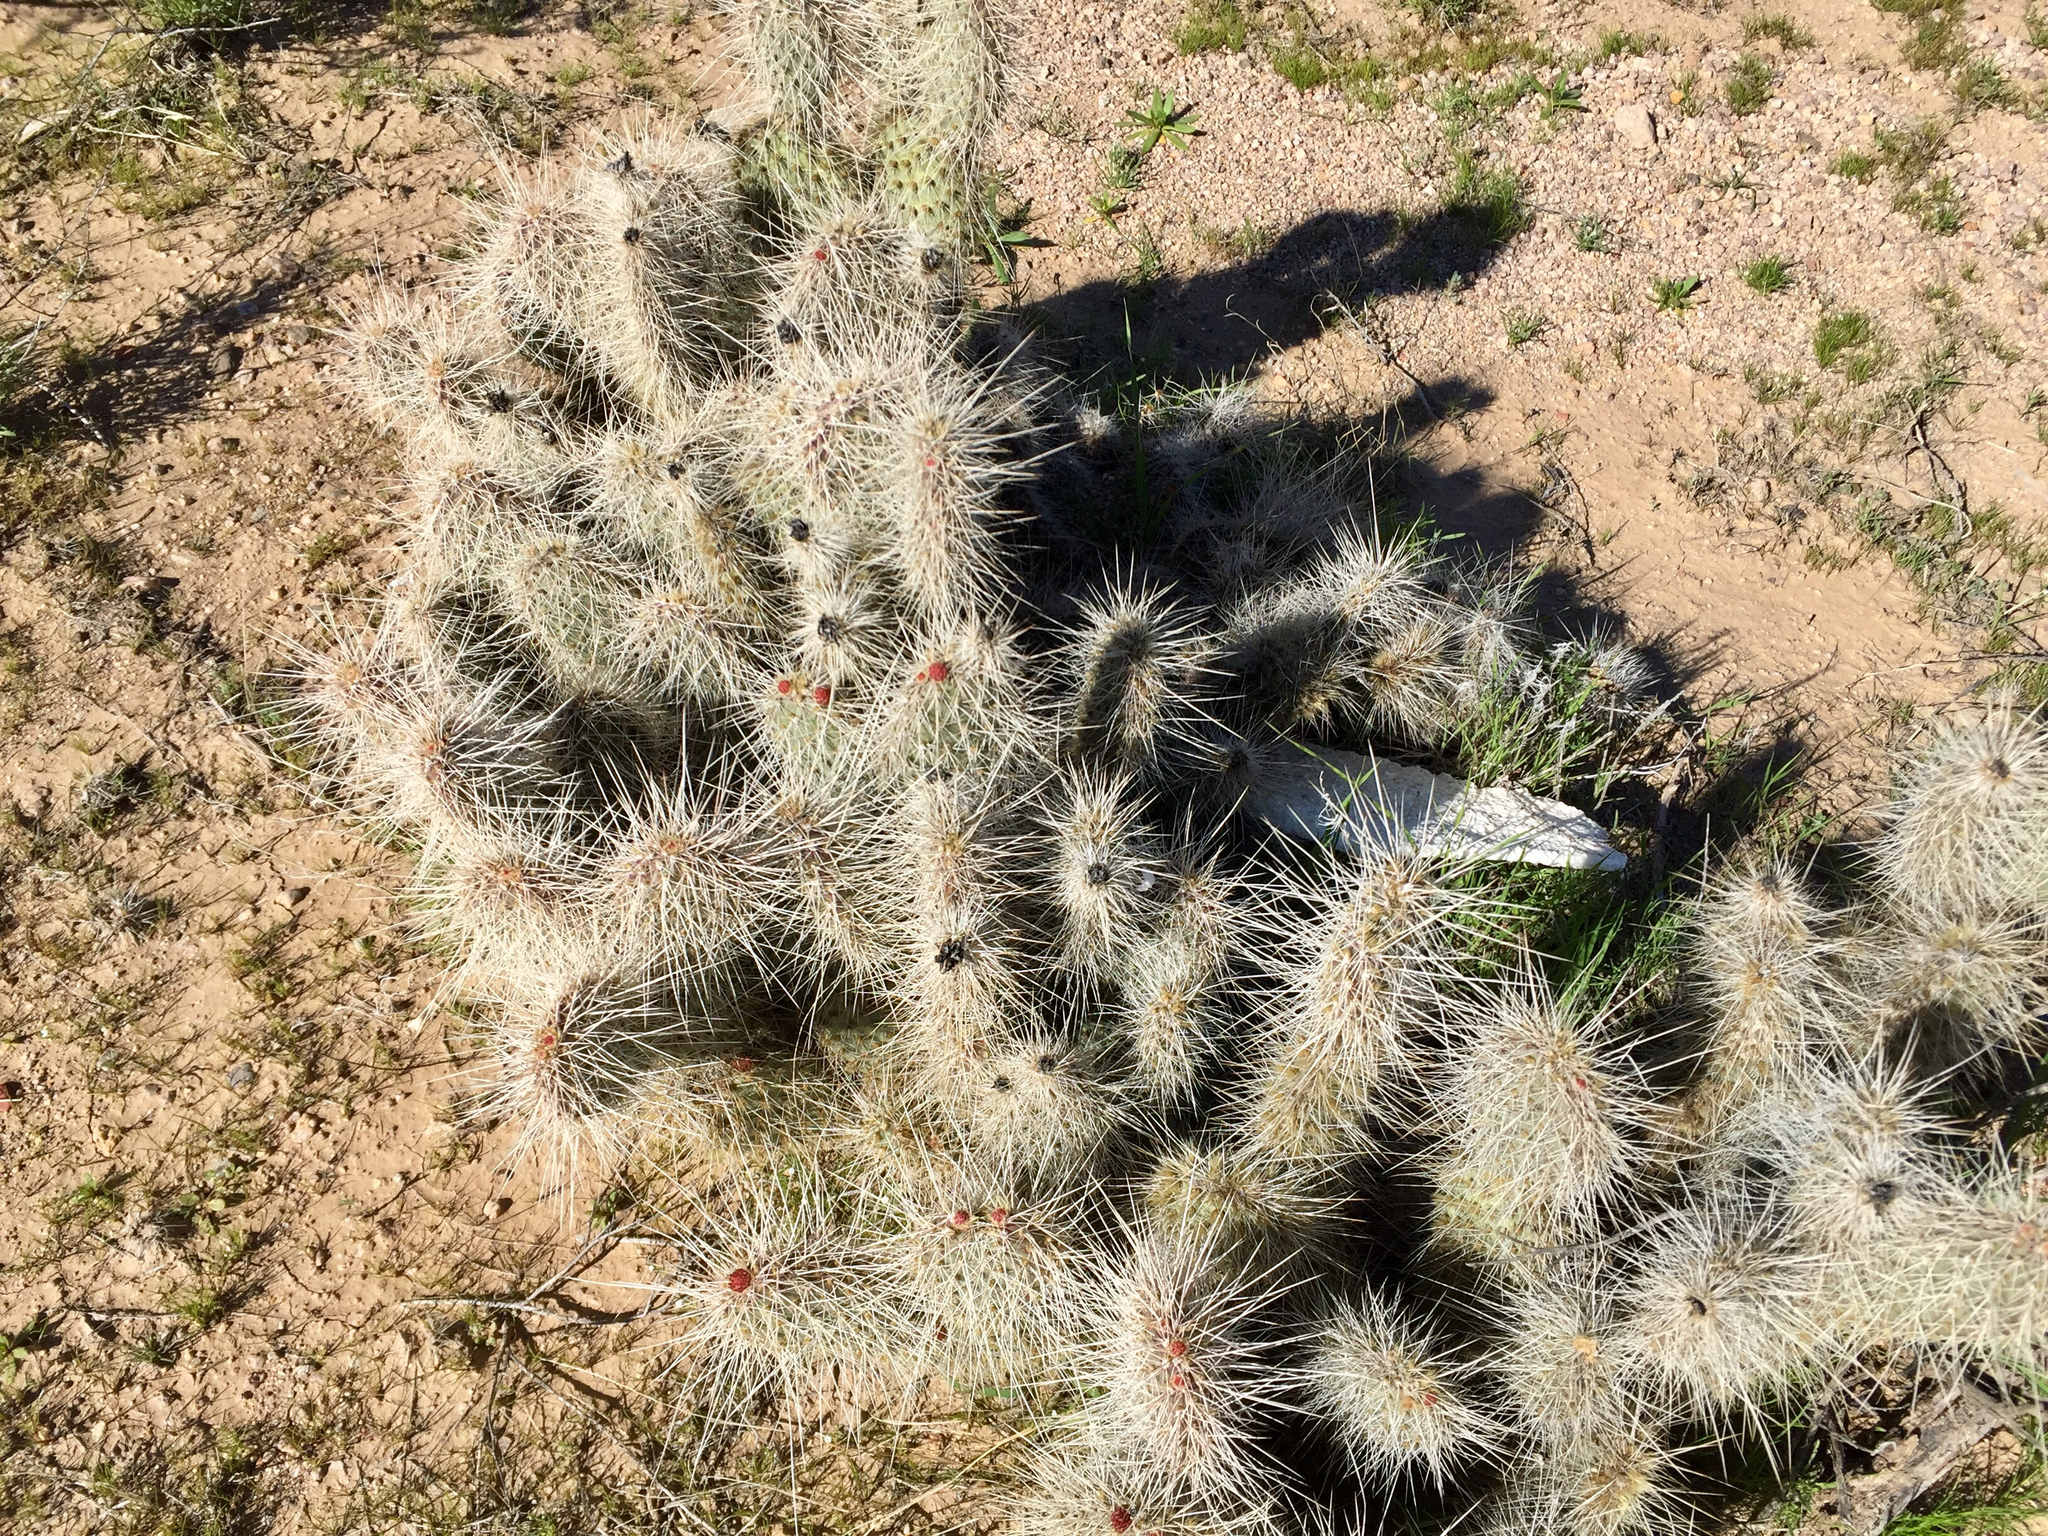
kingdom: Plantae
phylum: Tracheophyta
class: Magnoliopsida
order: Caryophyllales
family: Cactaceae
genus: Opuntia
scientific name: Opuntia polyacantha
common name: Plains prickly-pear
